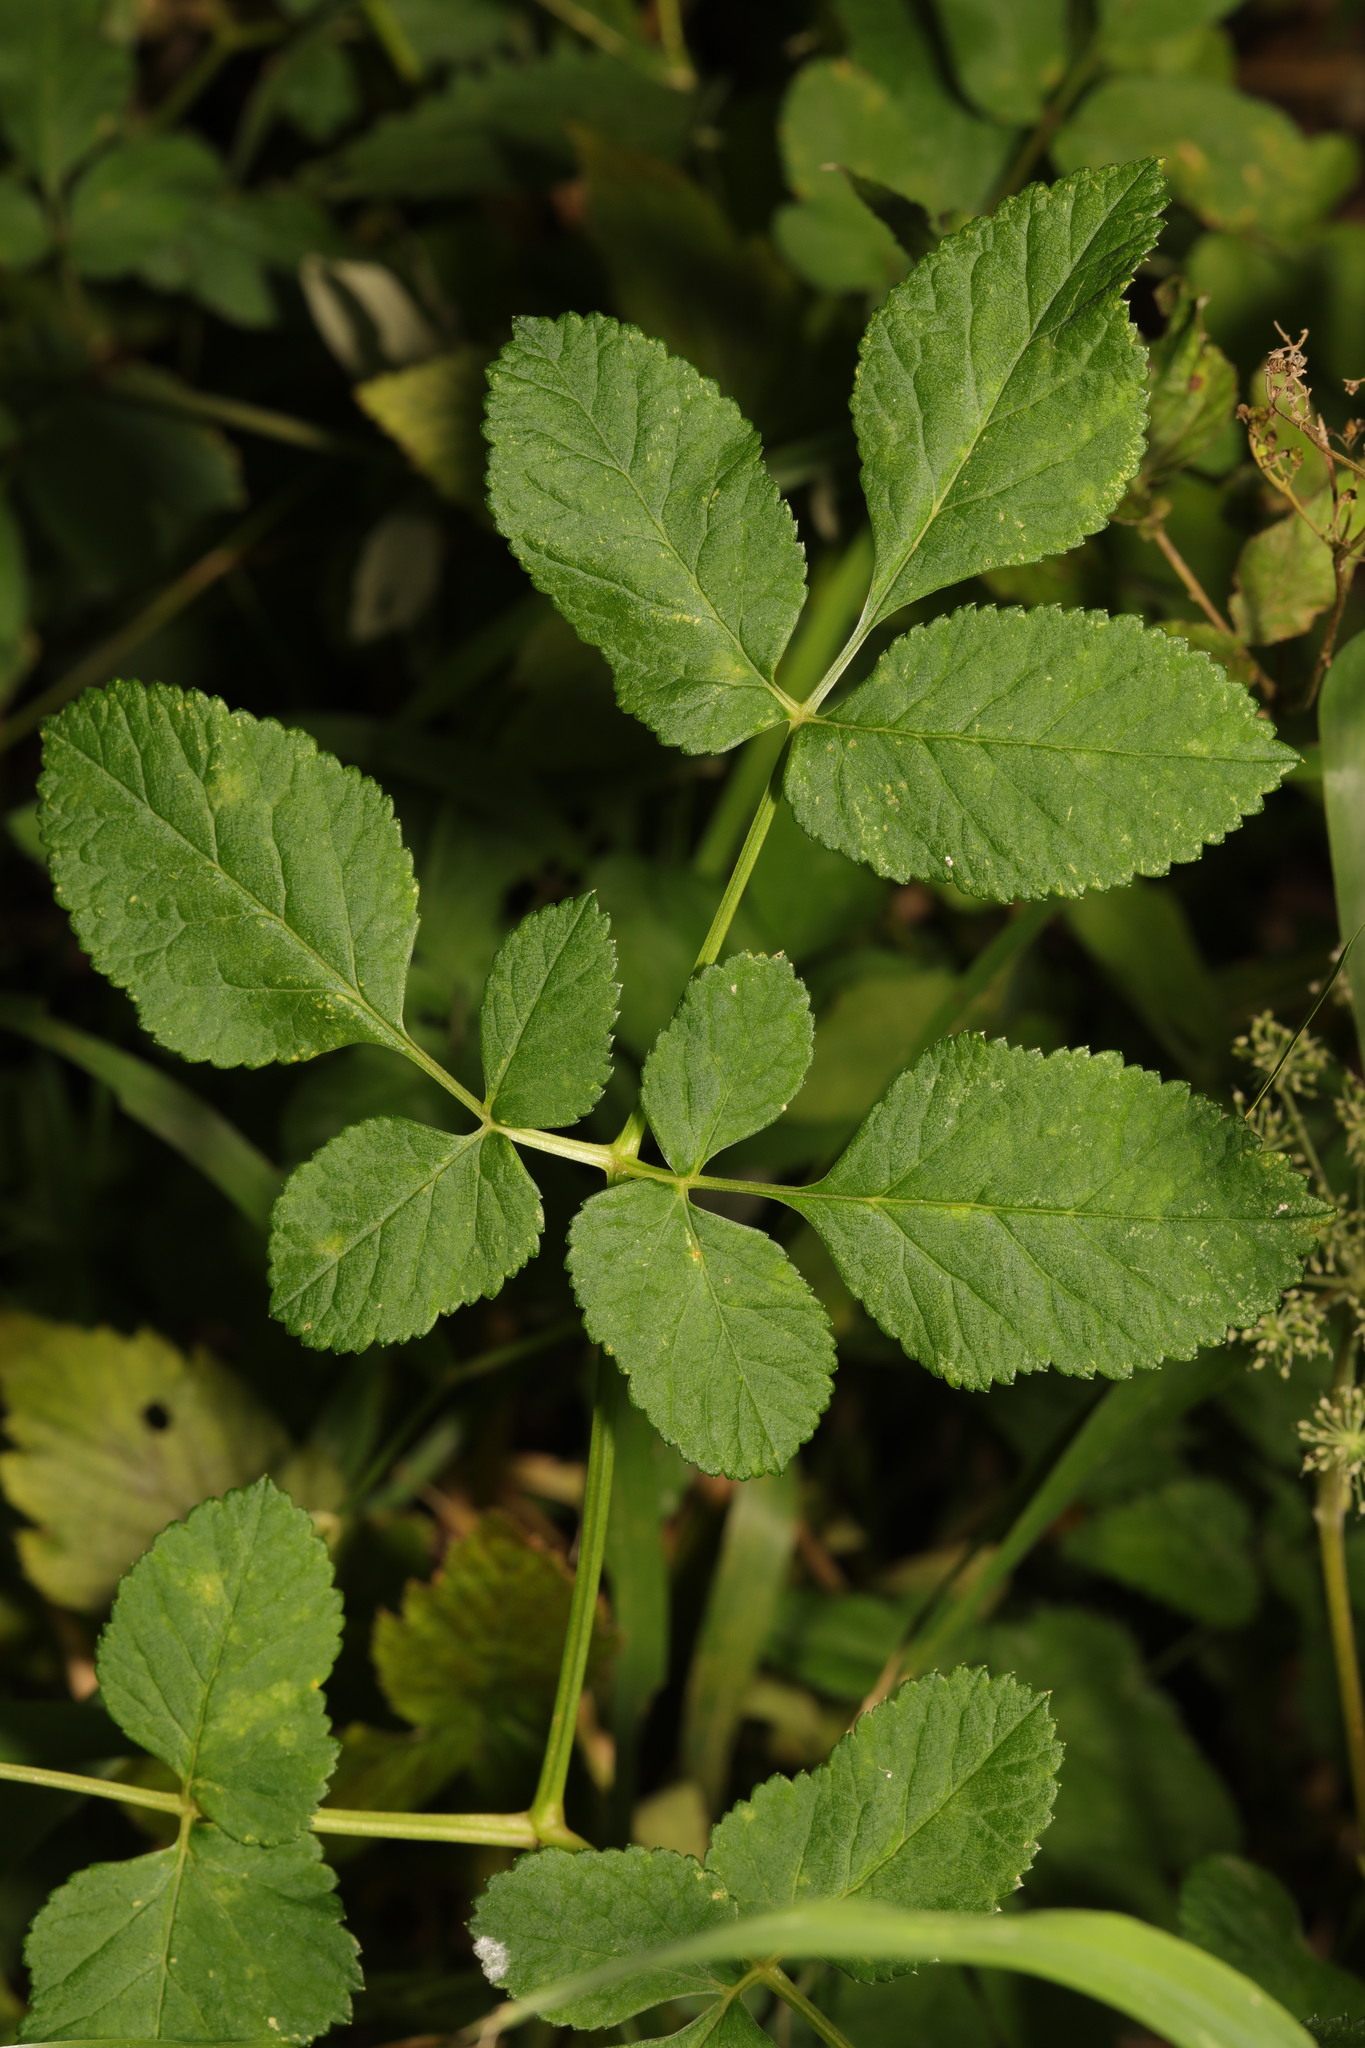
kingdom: Plantae
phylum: Tracheophyta
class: Magnoliopsida
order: Apiales
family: Apiaceae
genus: Angelica
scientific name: Angelica sylvestris
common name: Wild angelica
